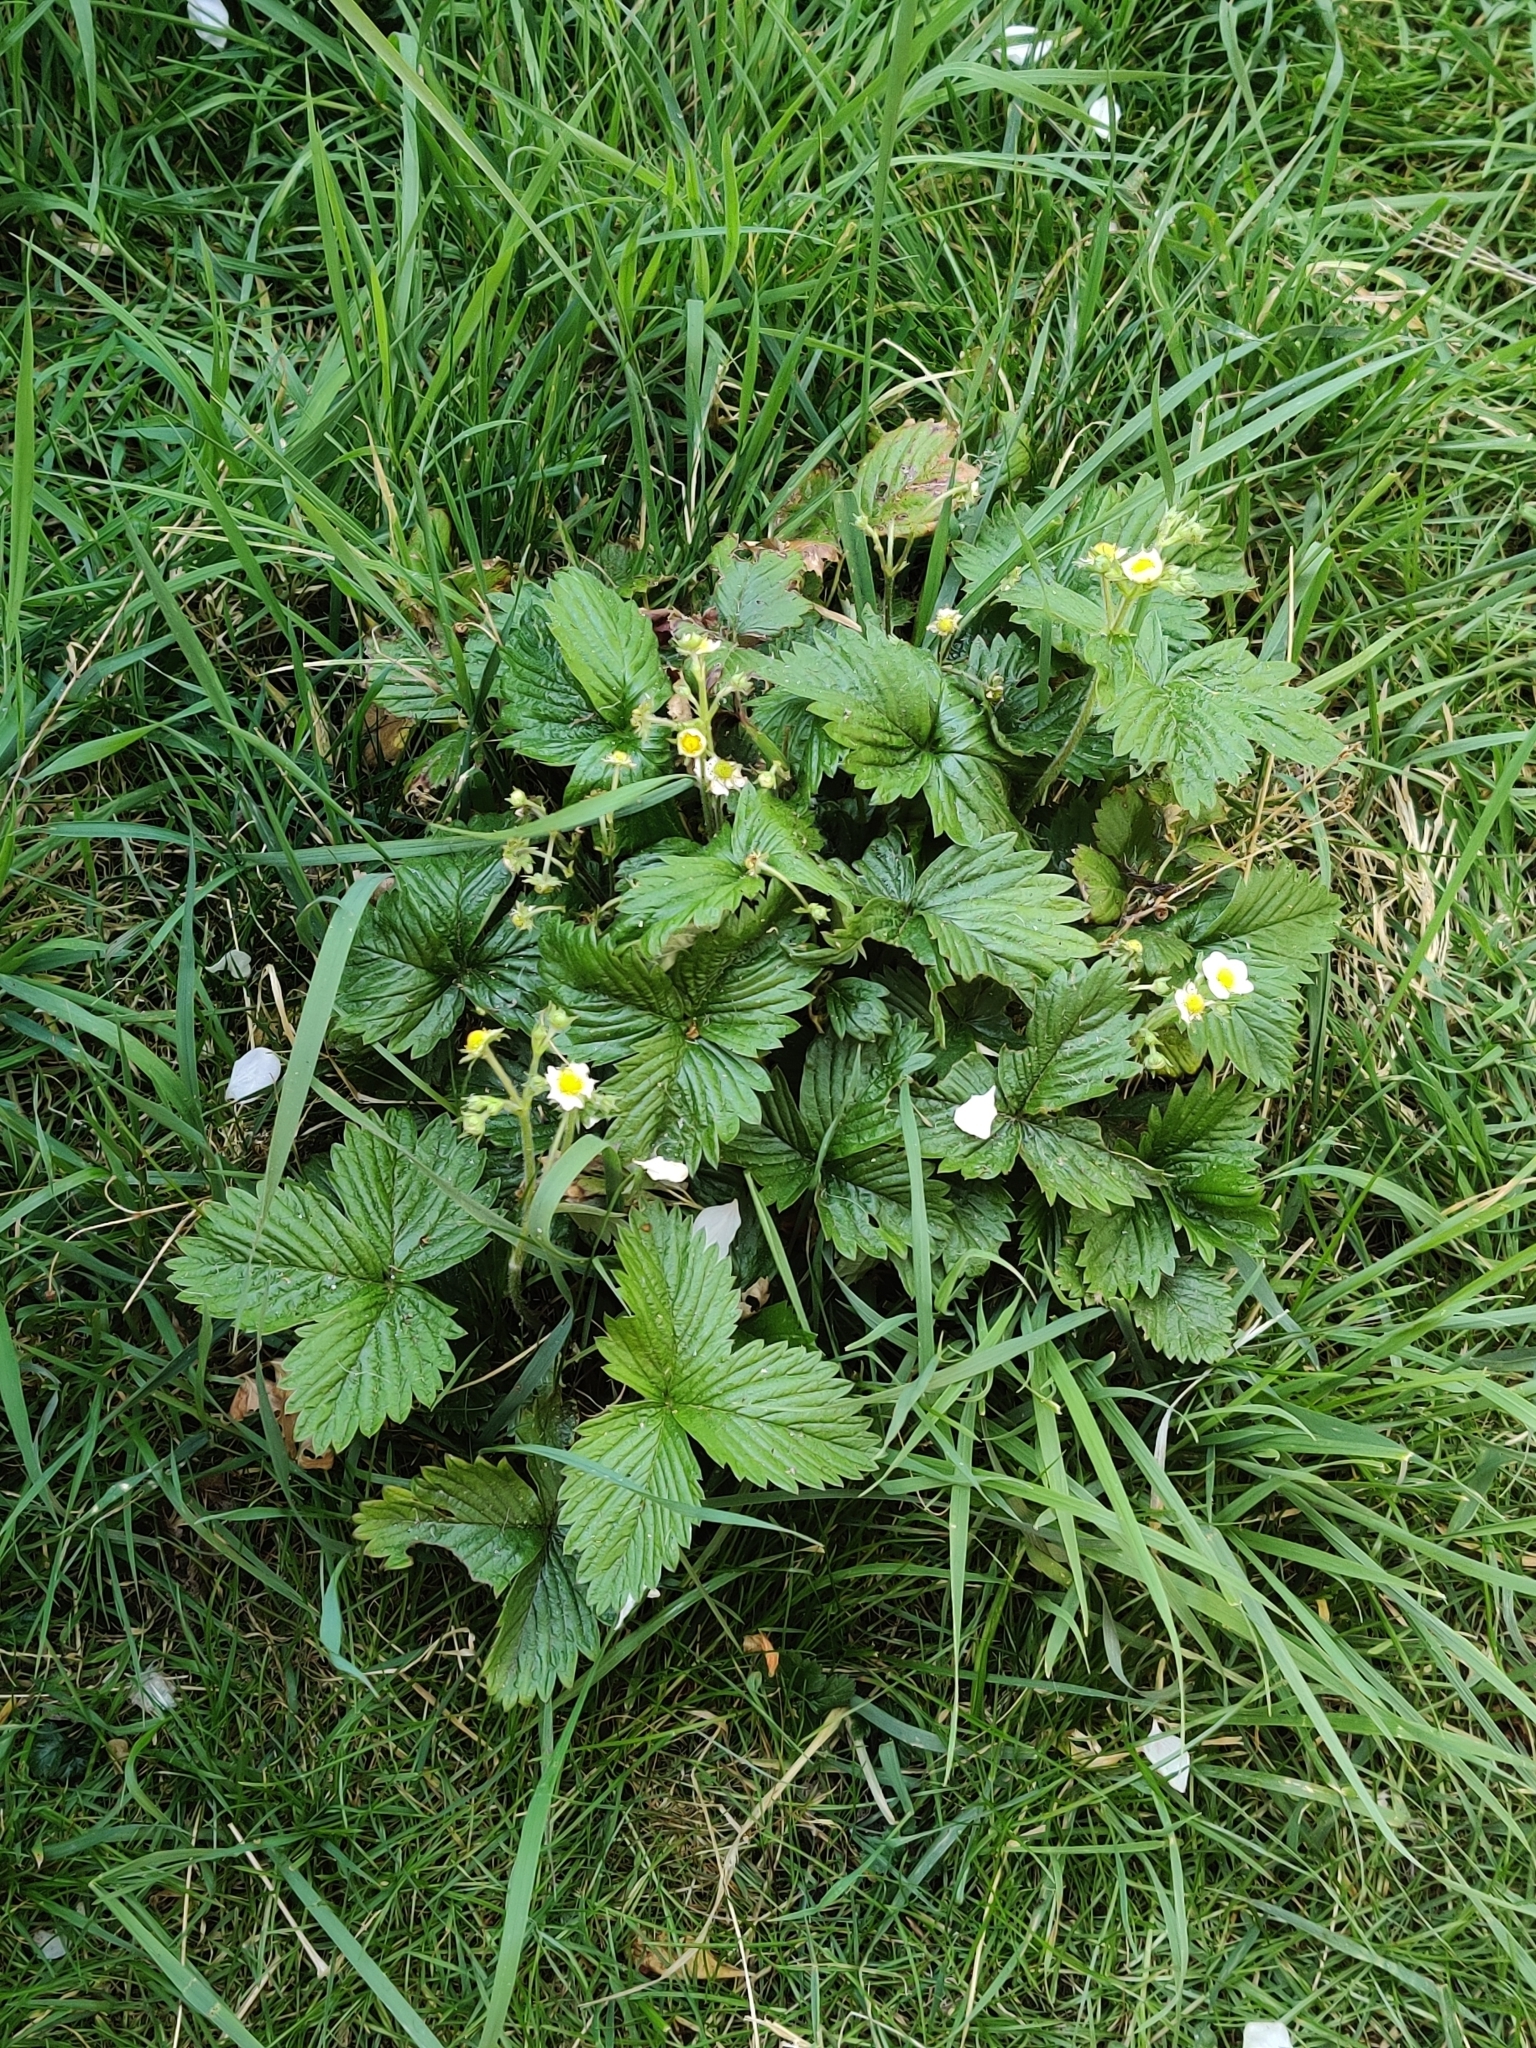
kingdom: Plantae
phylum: Tracheophyta
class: Magnoliopsida
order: Rosales
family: Rosaceae
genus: Fragaria
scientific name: Fragaria vesca
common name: Wild strawberry
